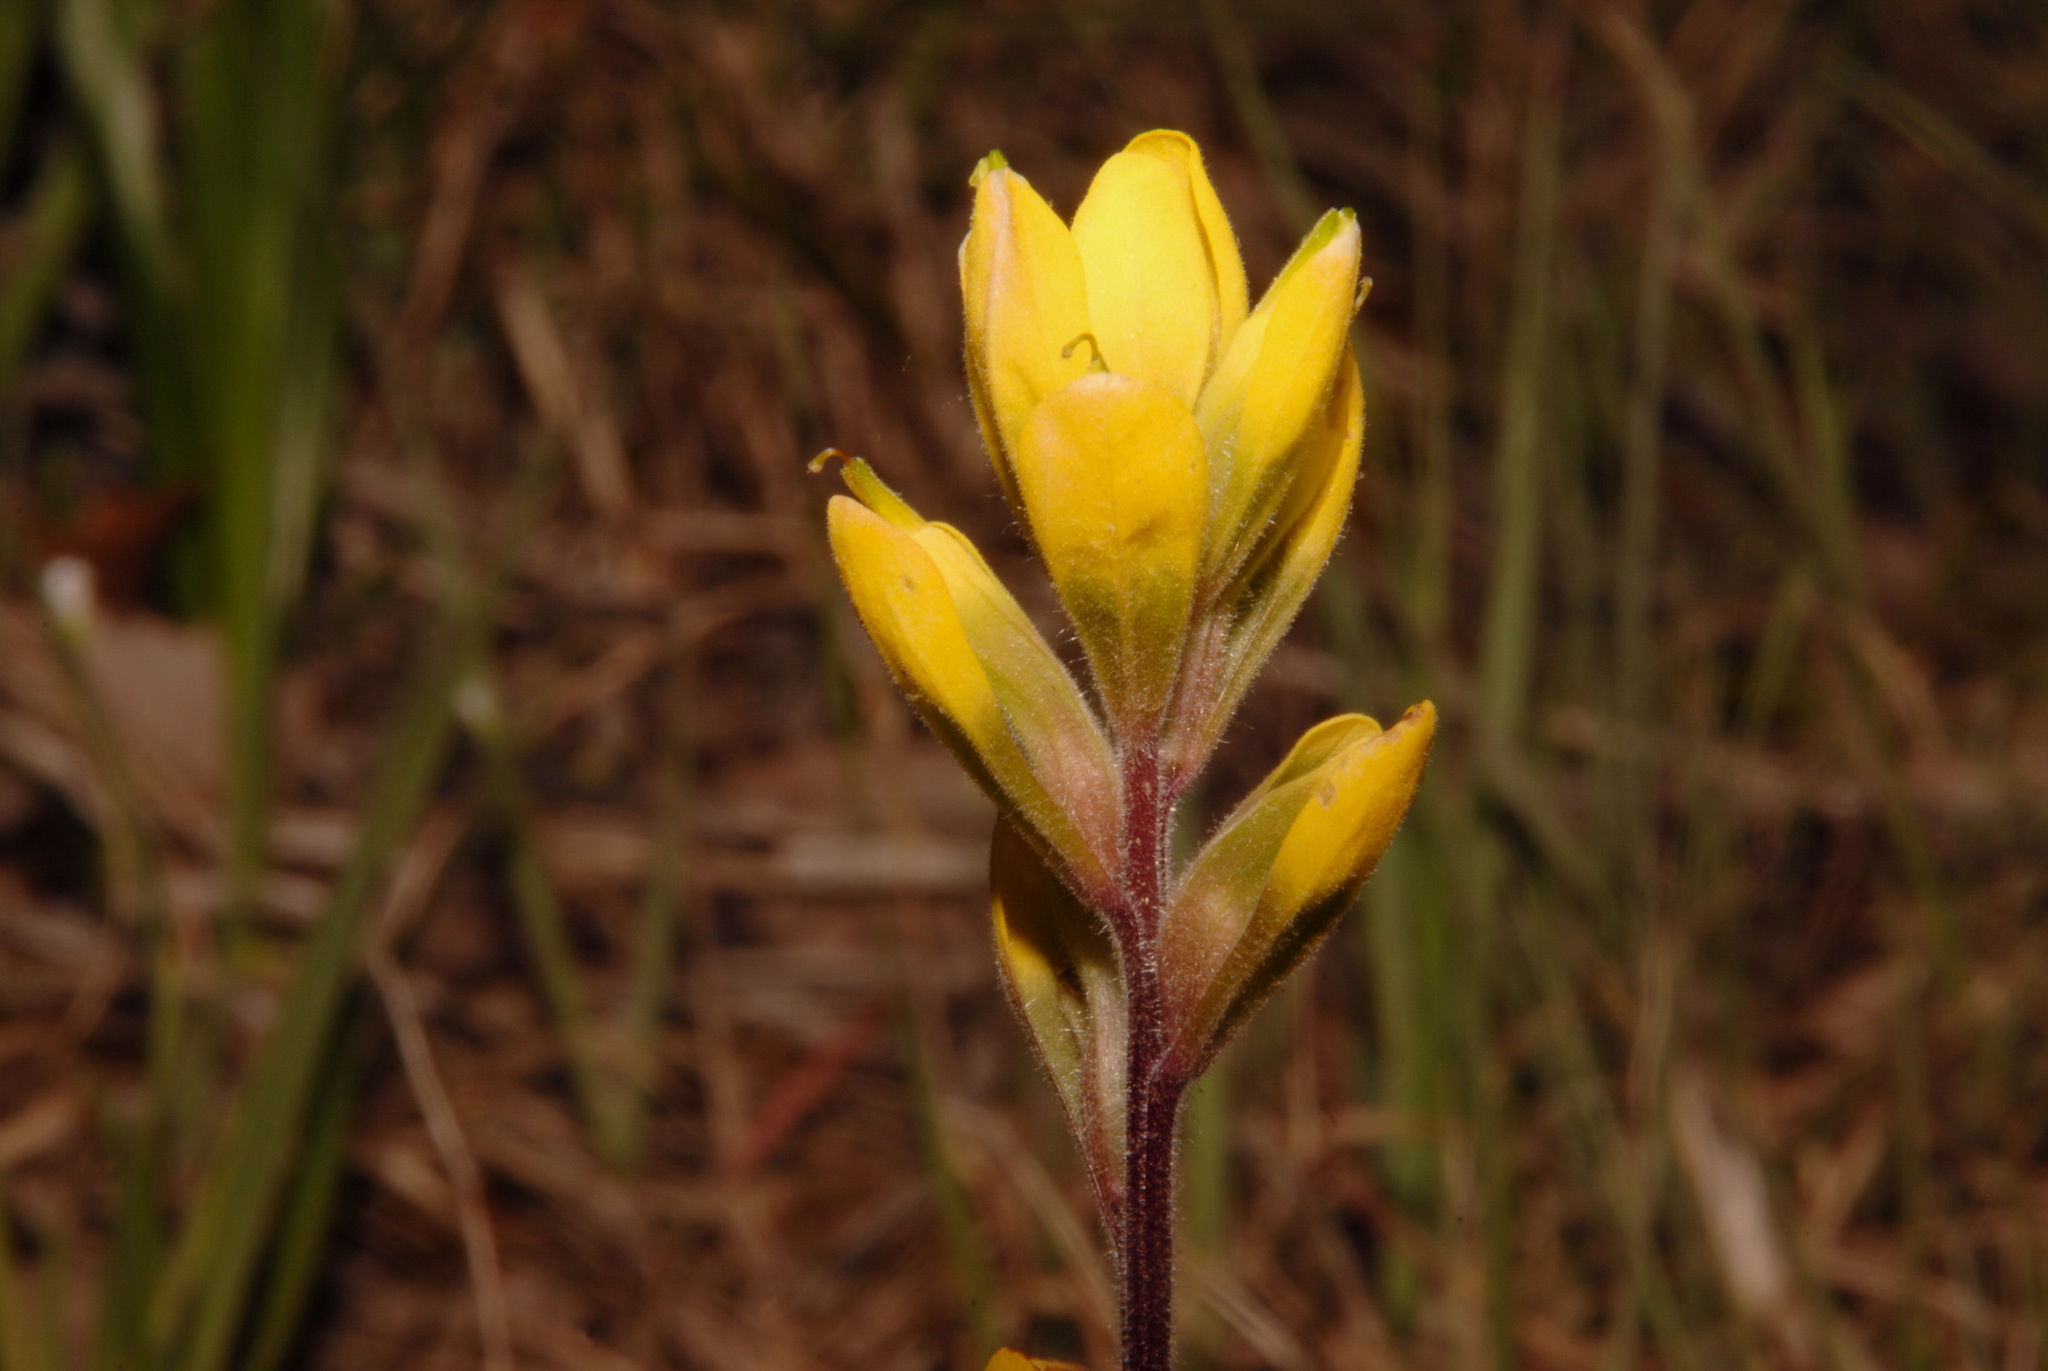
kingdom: Plantae
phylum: Tracheophyta
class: Magnoliopsida
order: Lamiales
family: Orobanchaceae
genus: Castilleja
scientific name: Castilleja kraliana
